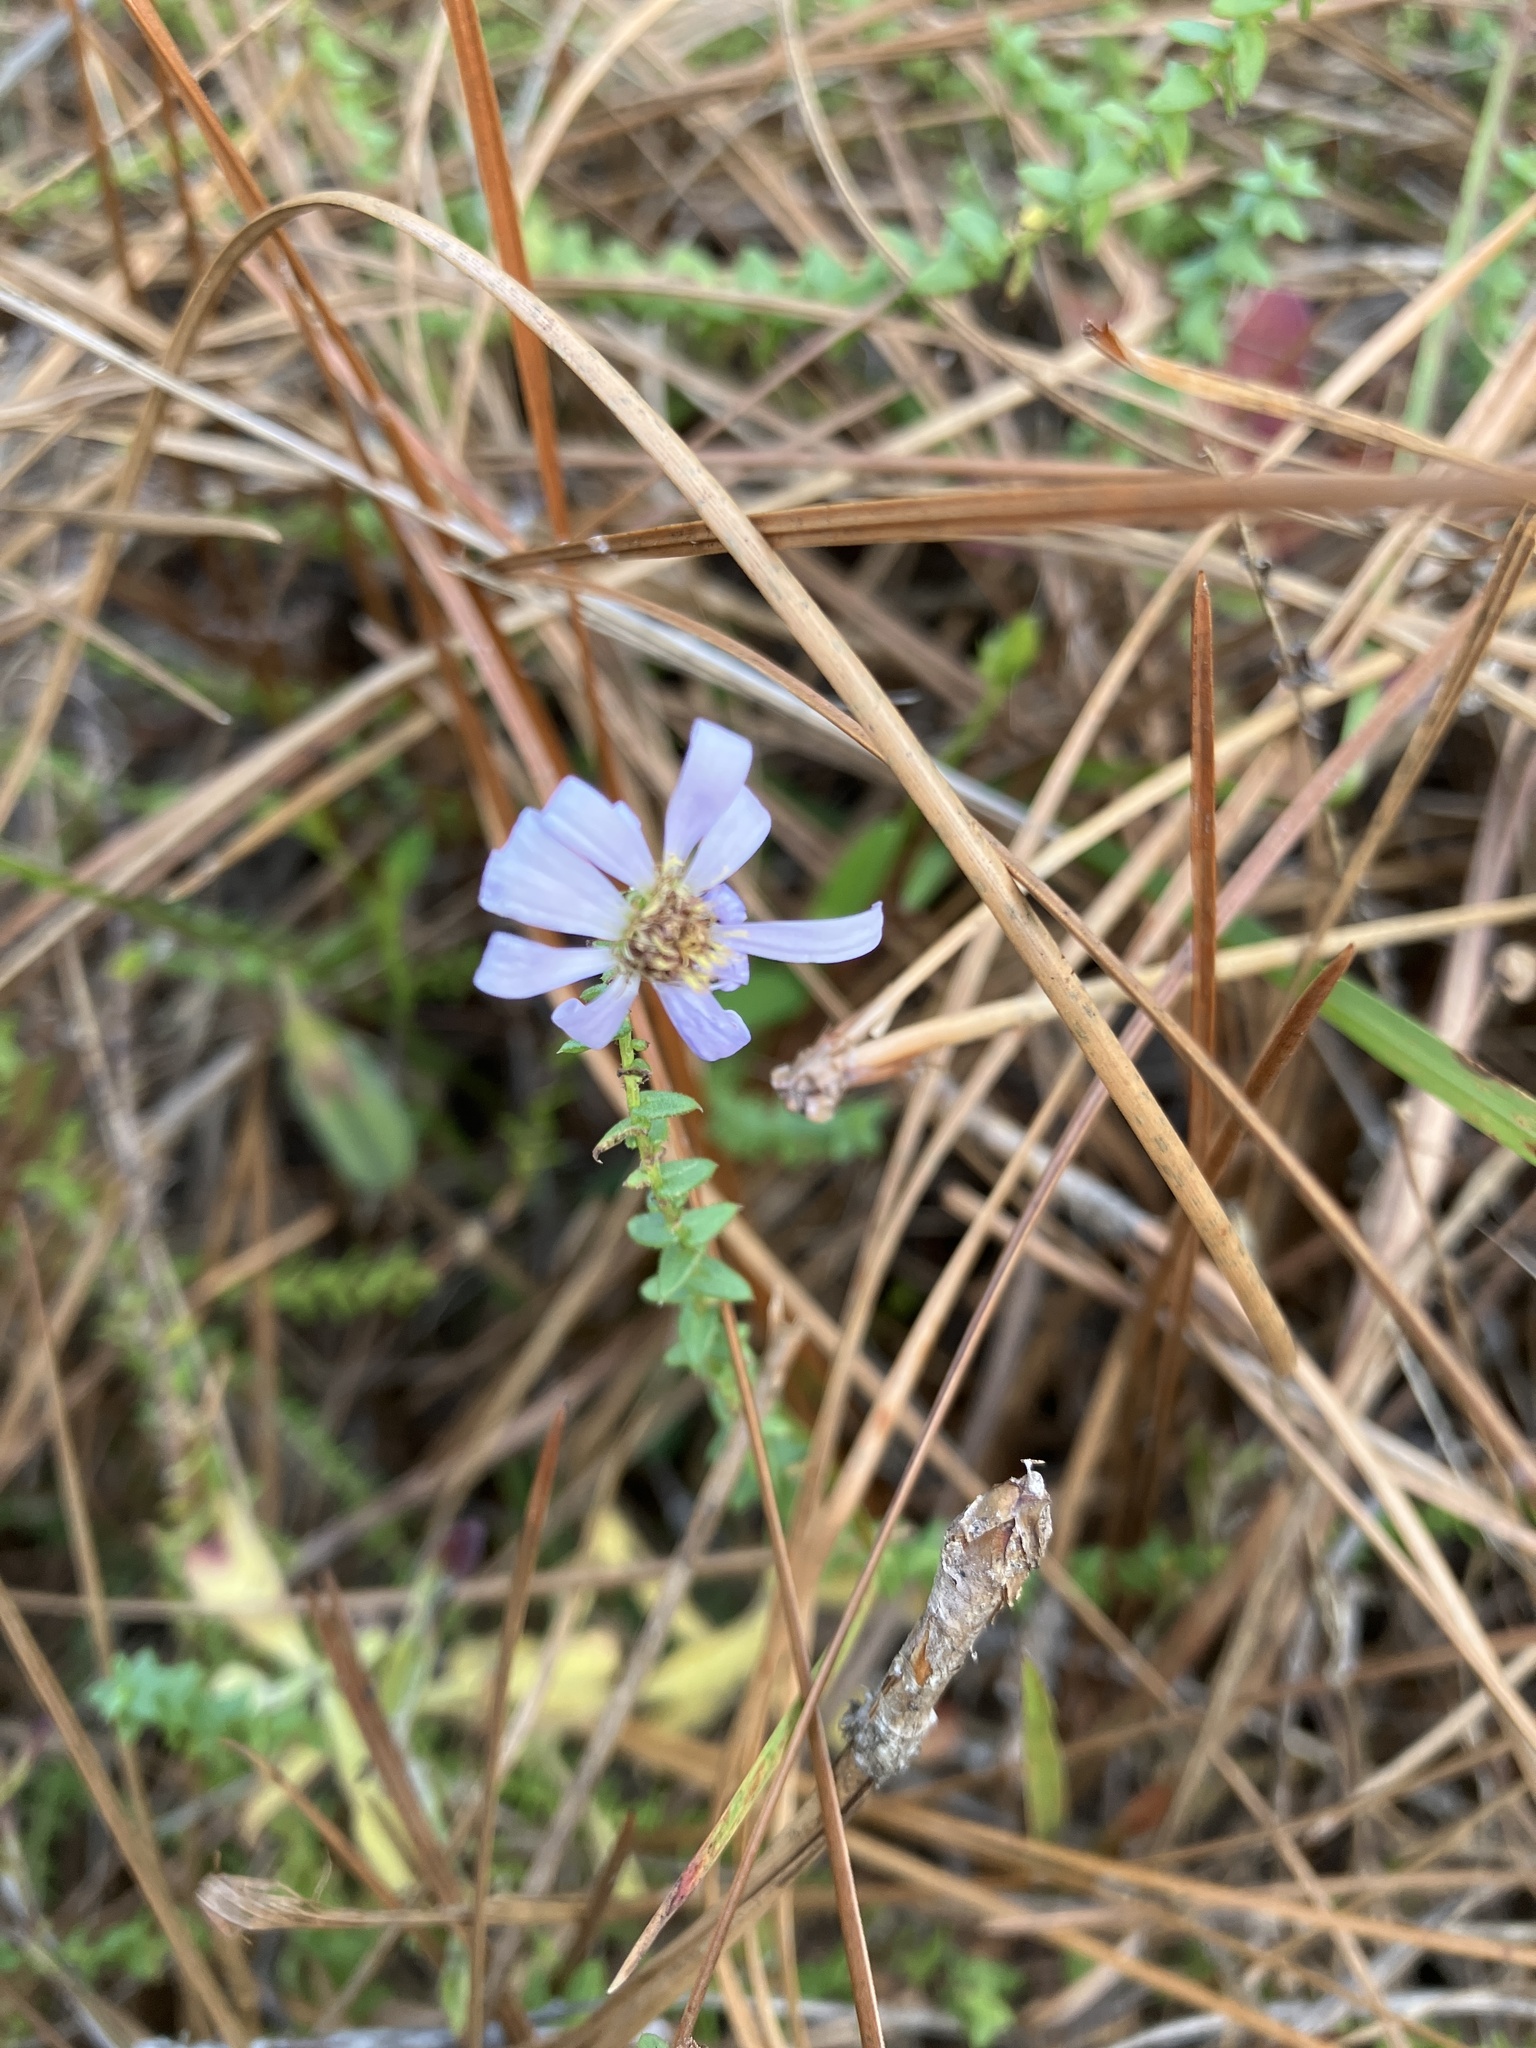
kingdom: Plantae
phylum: Tracheophyta
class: Magnoliopsida
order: Asterales
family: Asteraceae
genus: Symphyotrichum
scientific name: Symphyotrichum walteri
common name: Walter's aster
